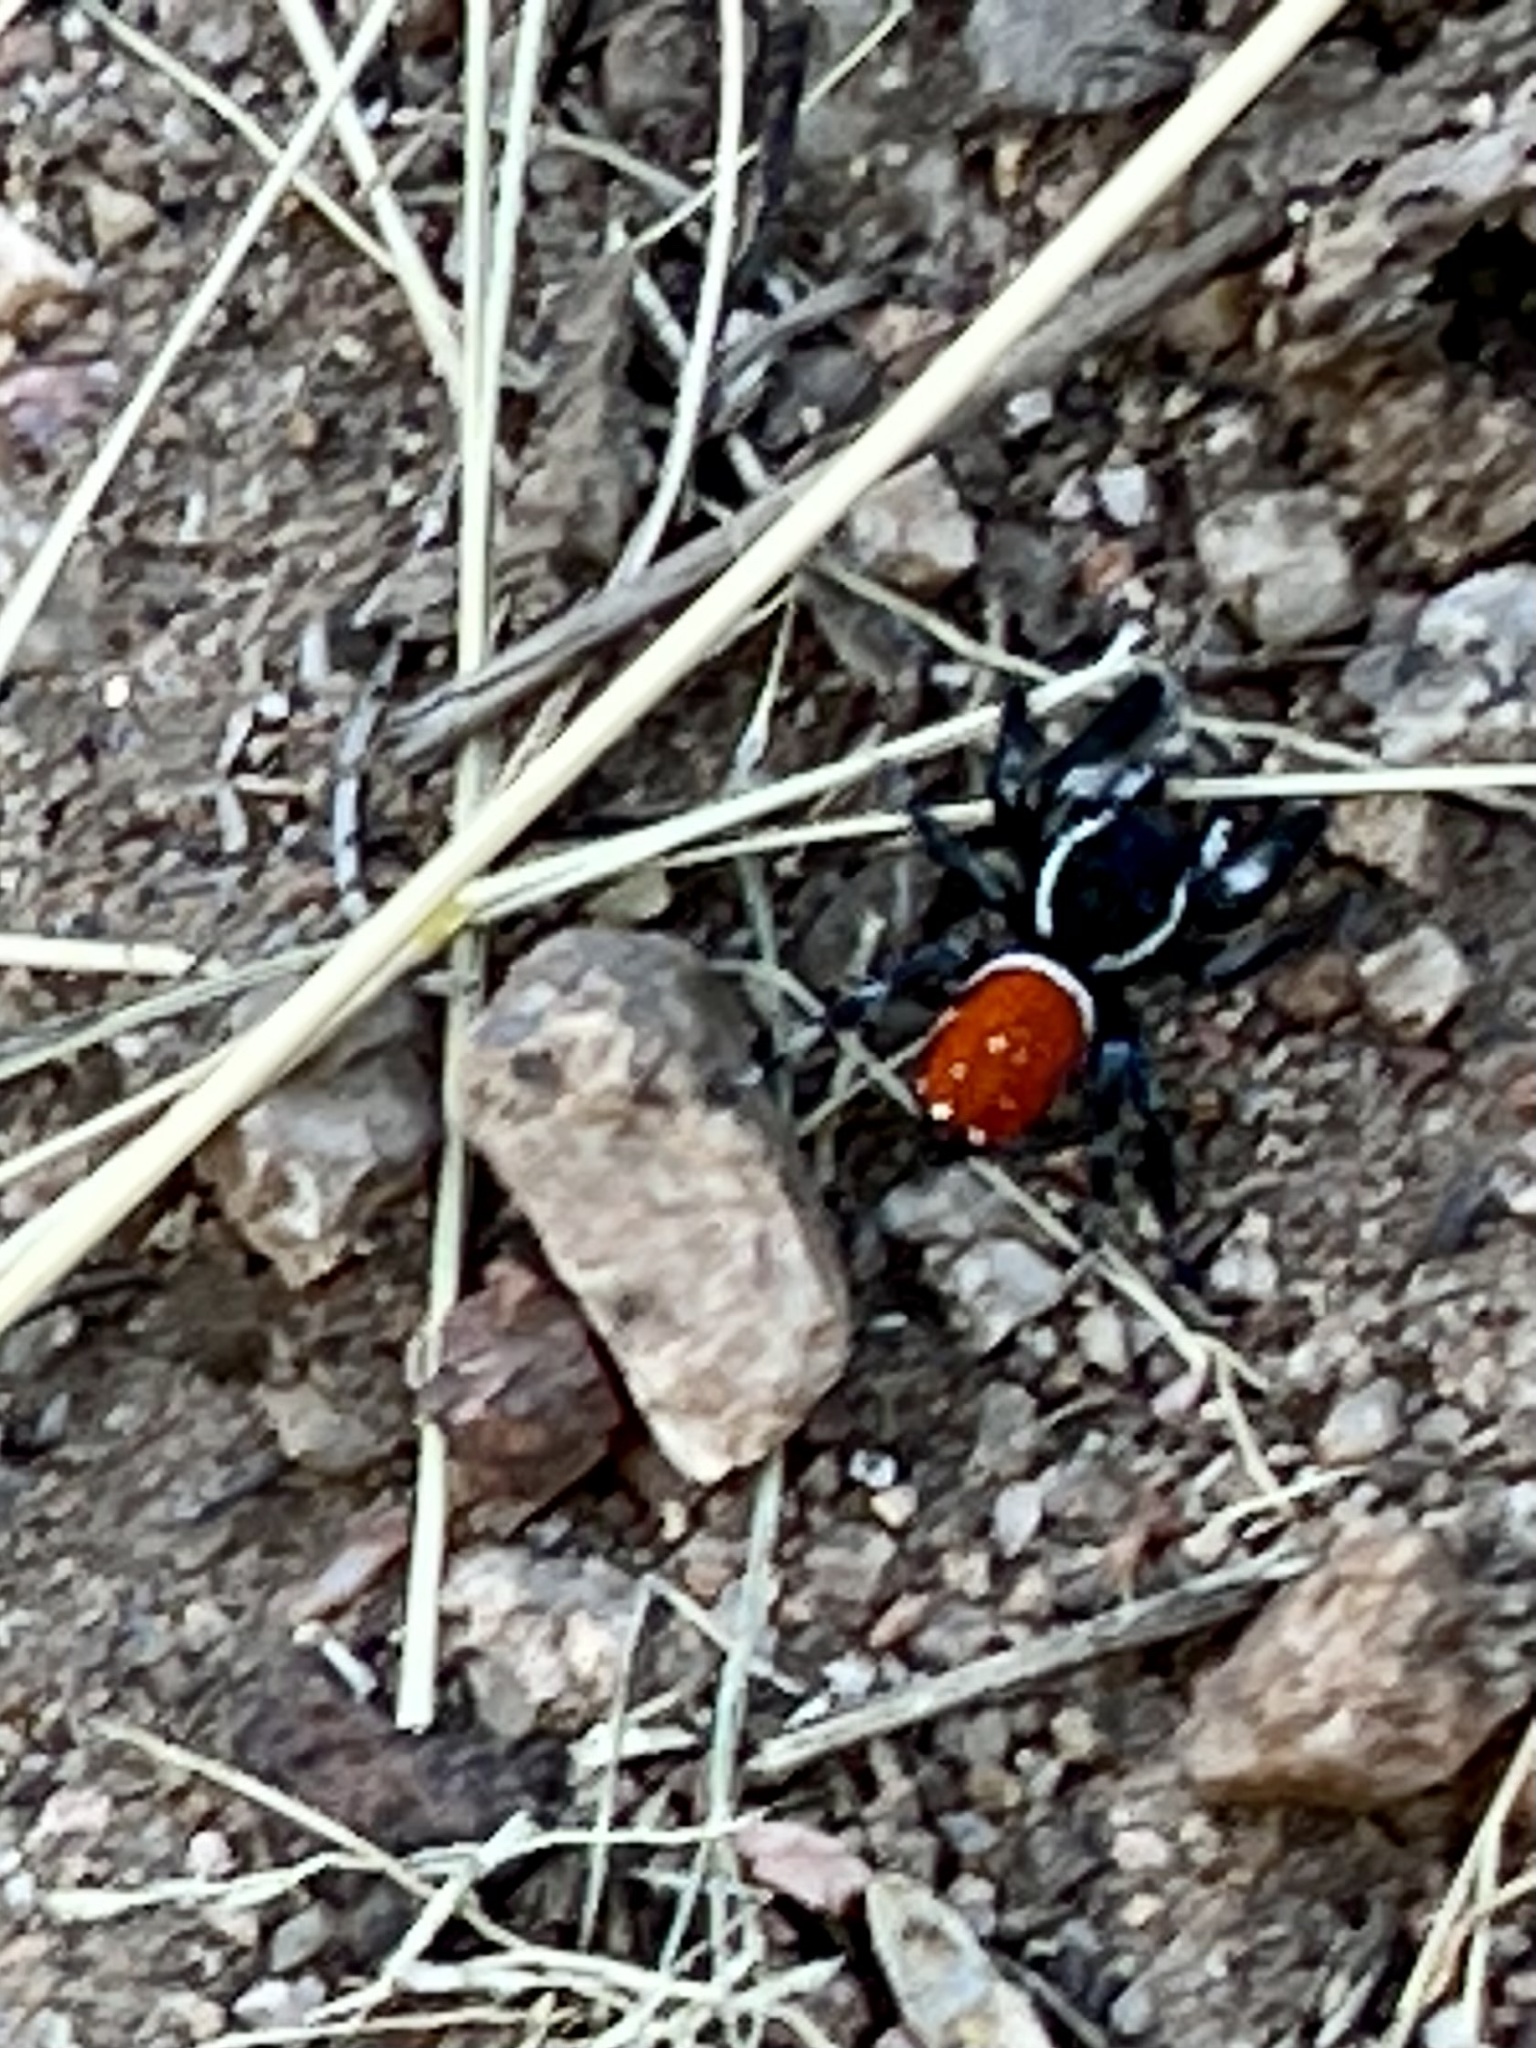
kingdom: Animalia
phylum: Arthropoda
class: Arachnida
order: Araneae
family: Salticidae
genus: Phidippus
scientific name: Phidippus carneus
